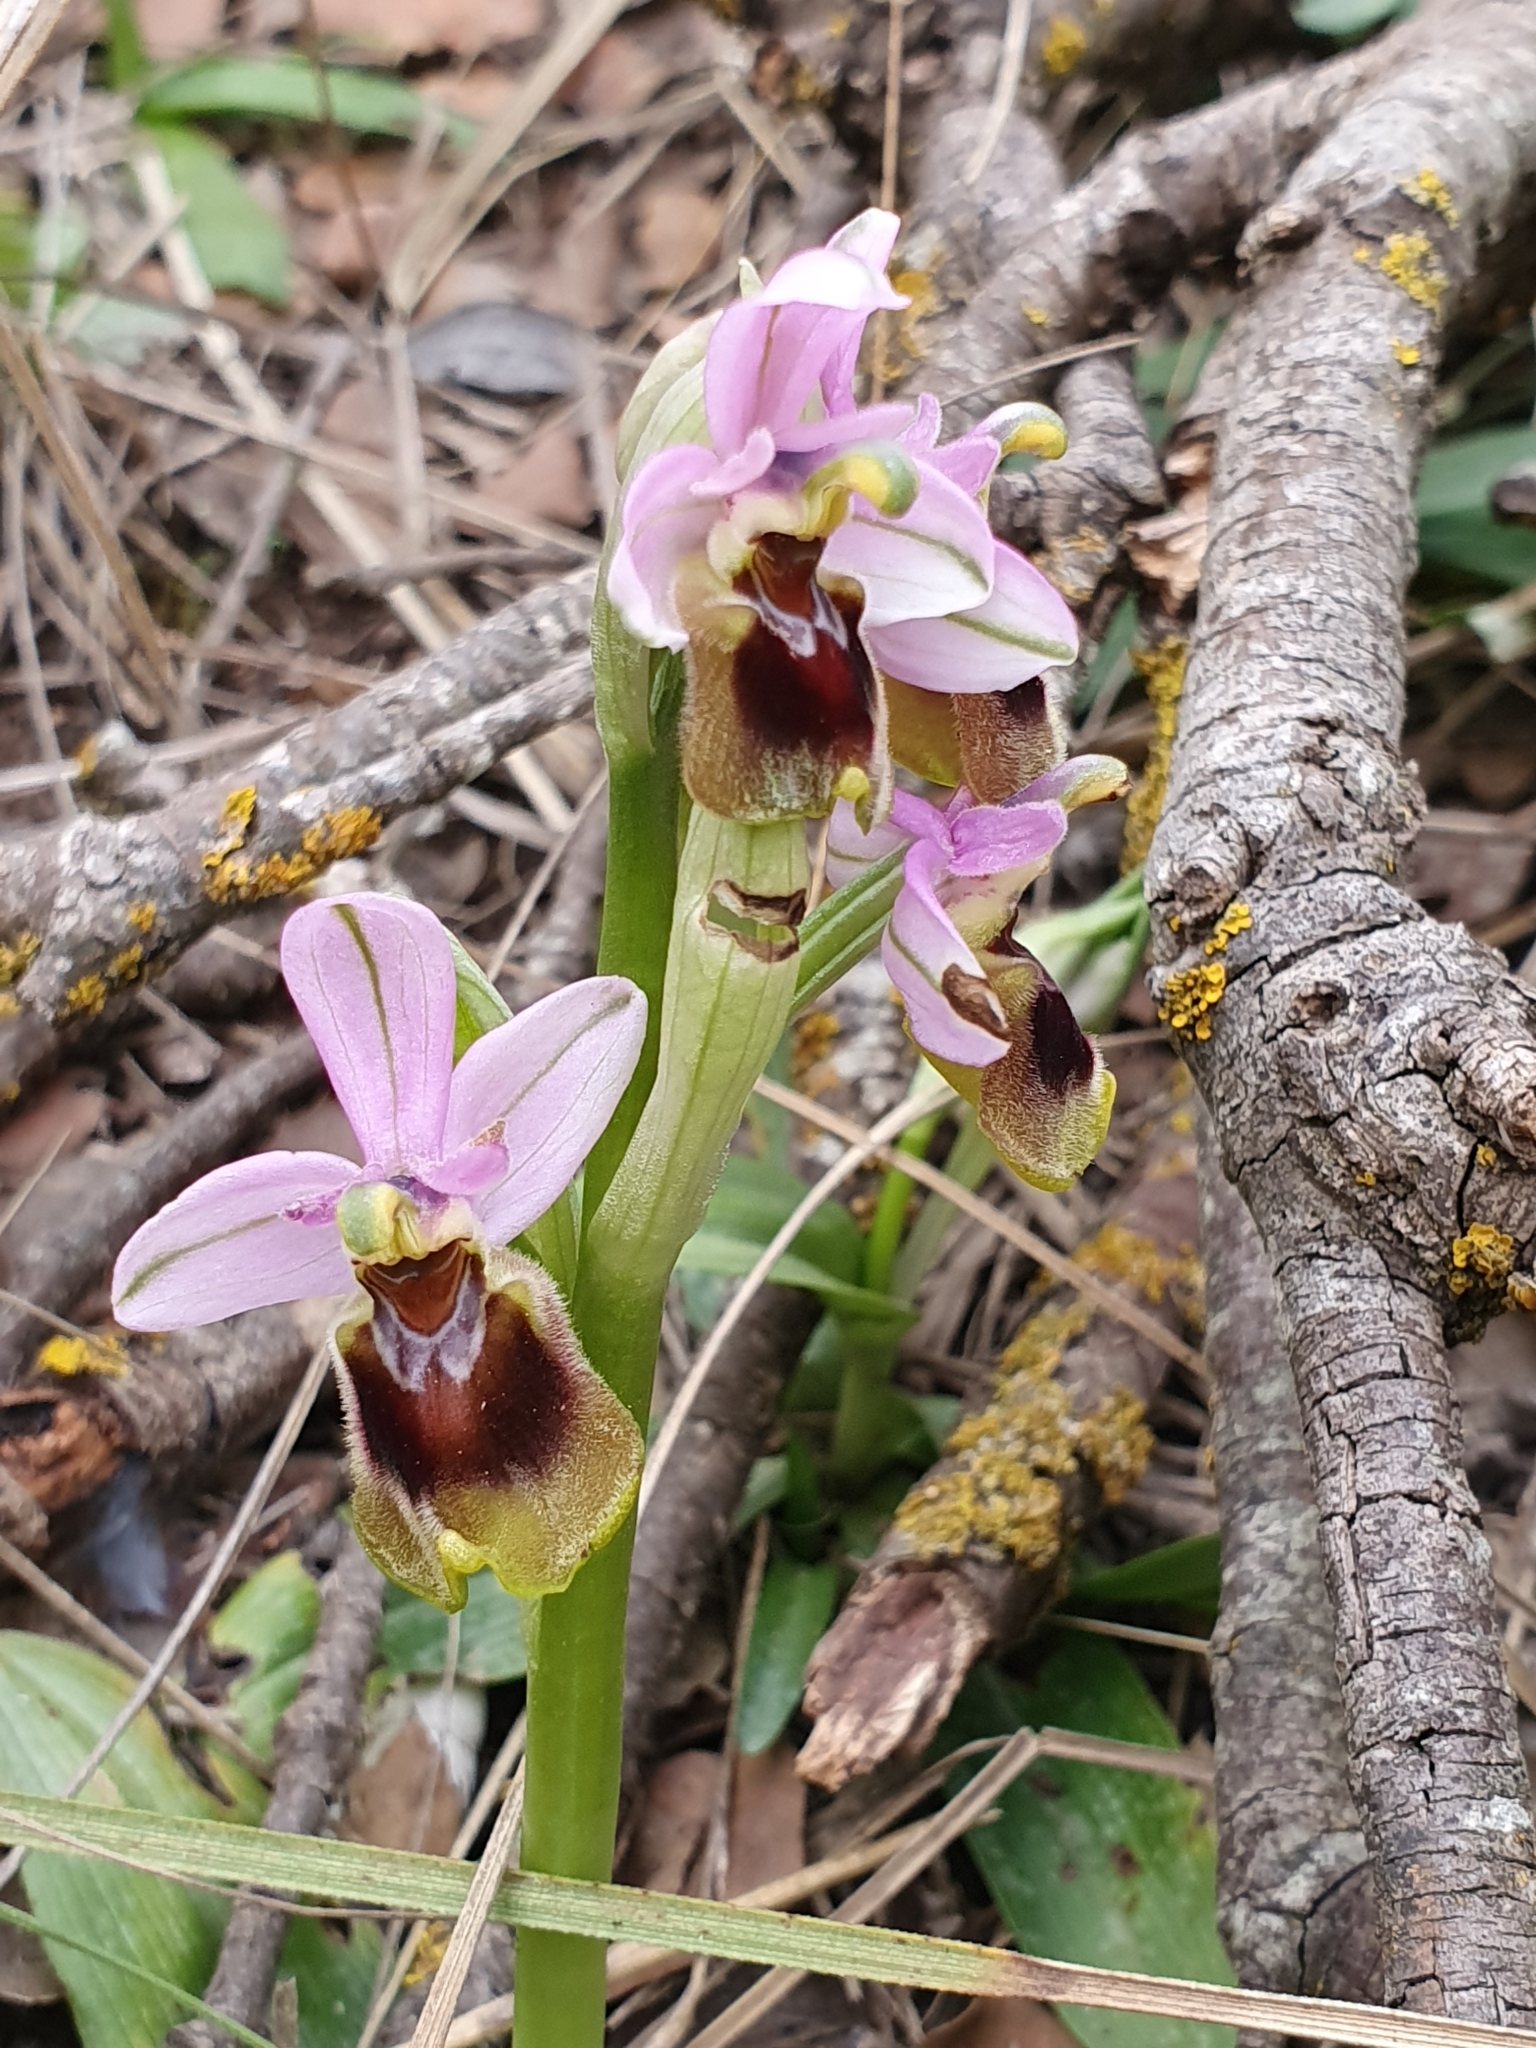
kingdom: Plantae
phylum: Tracheophyta
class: Liliopsida
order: Asparagales
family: Orchidaceae
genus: Ophrys
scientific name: Ophrys tenthredinifera
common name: Sawfly orchid
